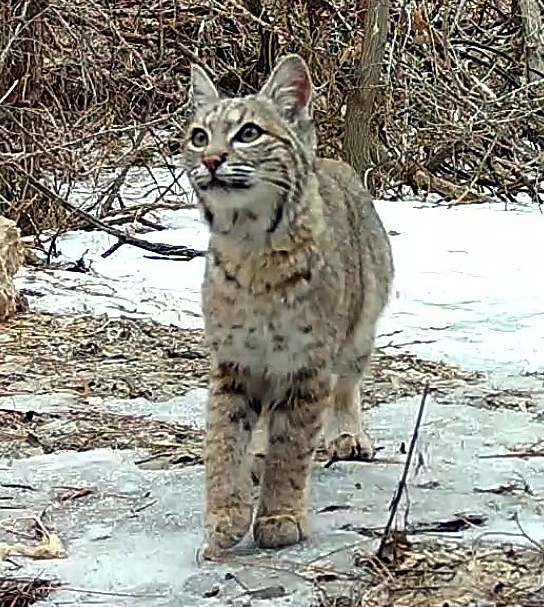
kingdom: Animalia
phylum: Chordata
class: Mammalia
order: Carnivora
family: Felidae
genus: Lynx
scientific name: Lynx rufus
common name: Bobcat
